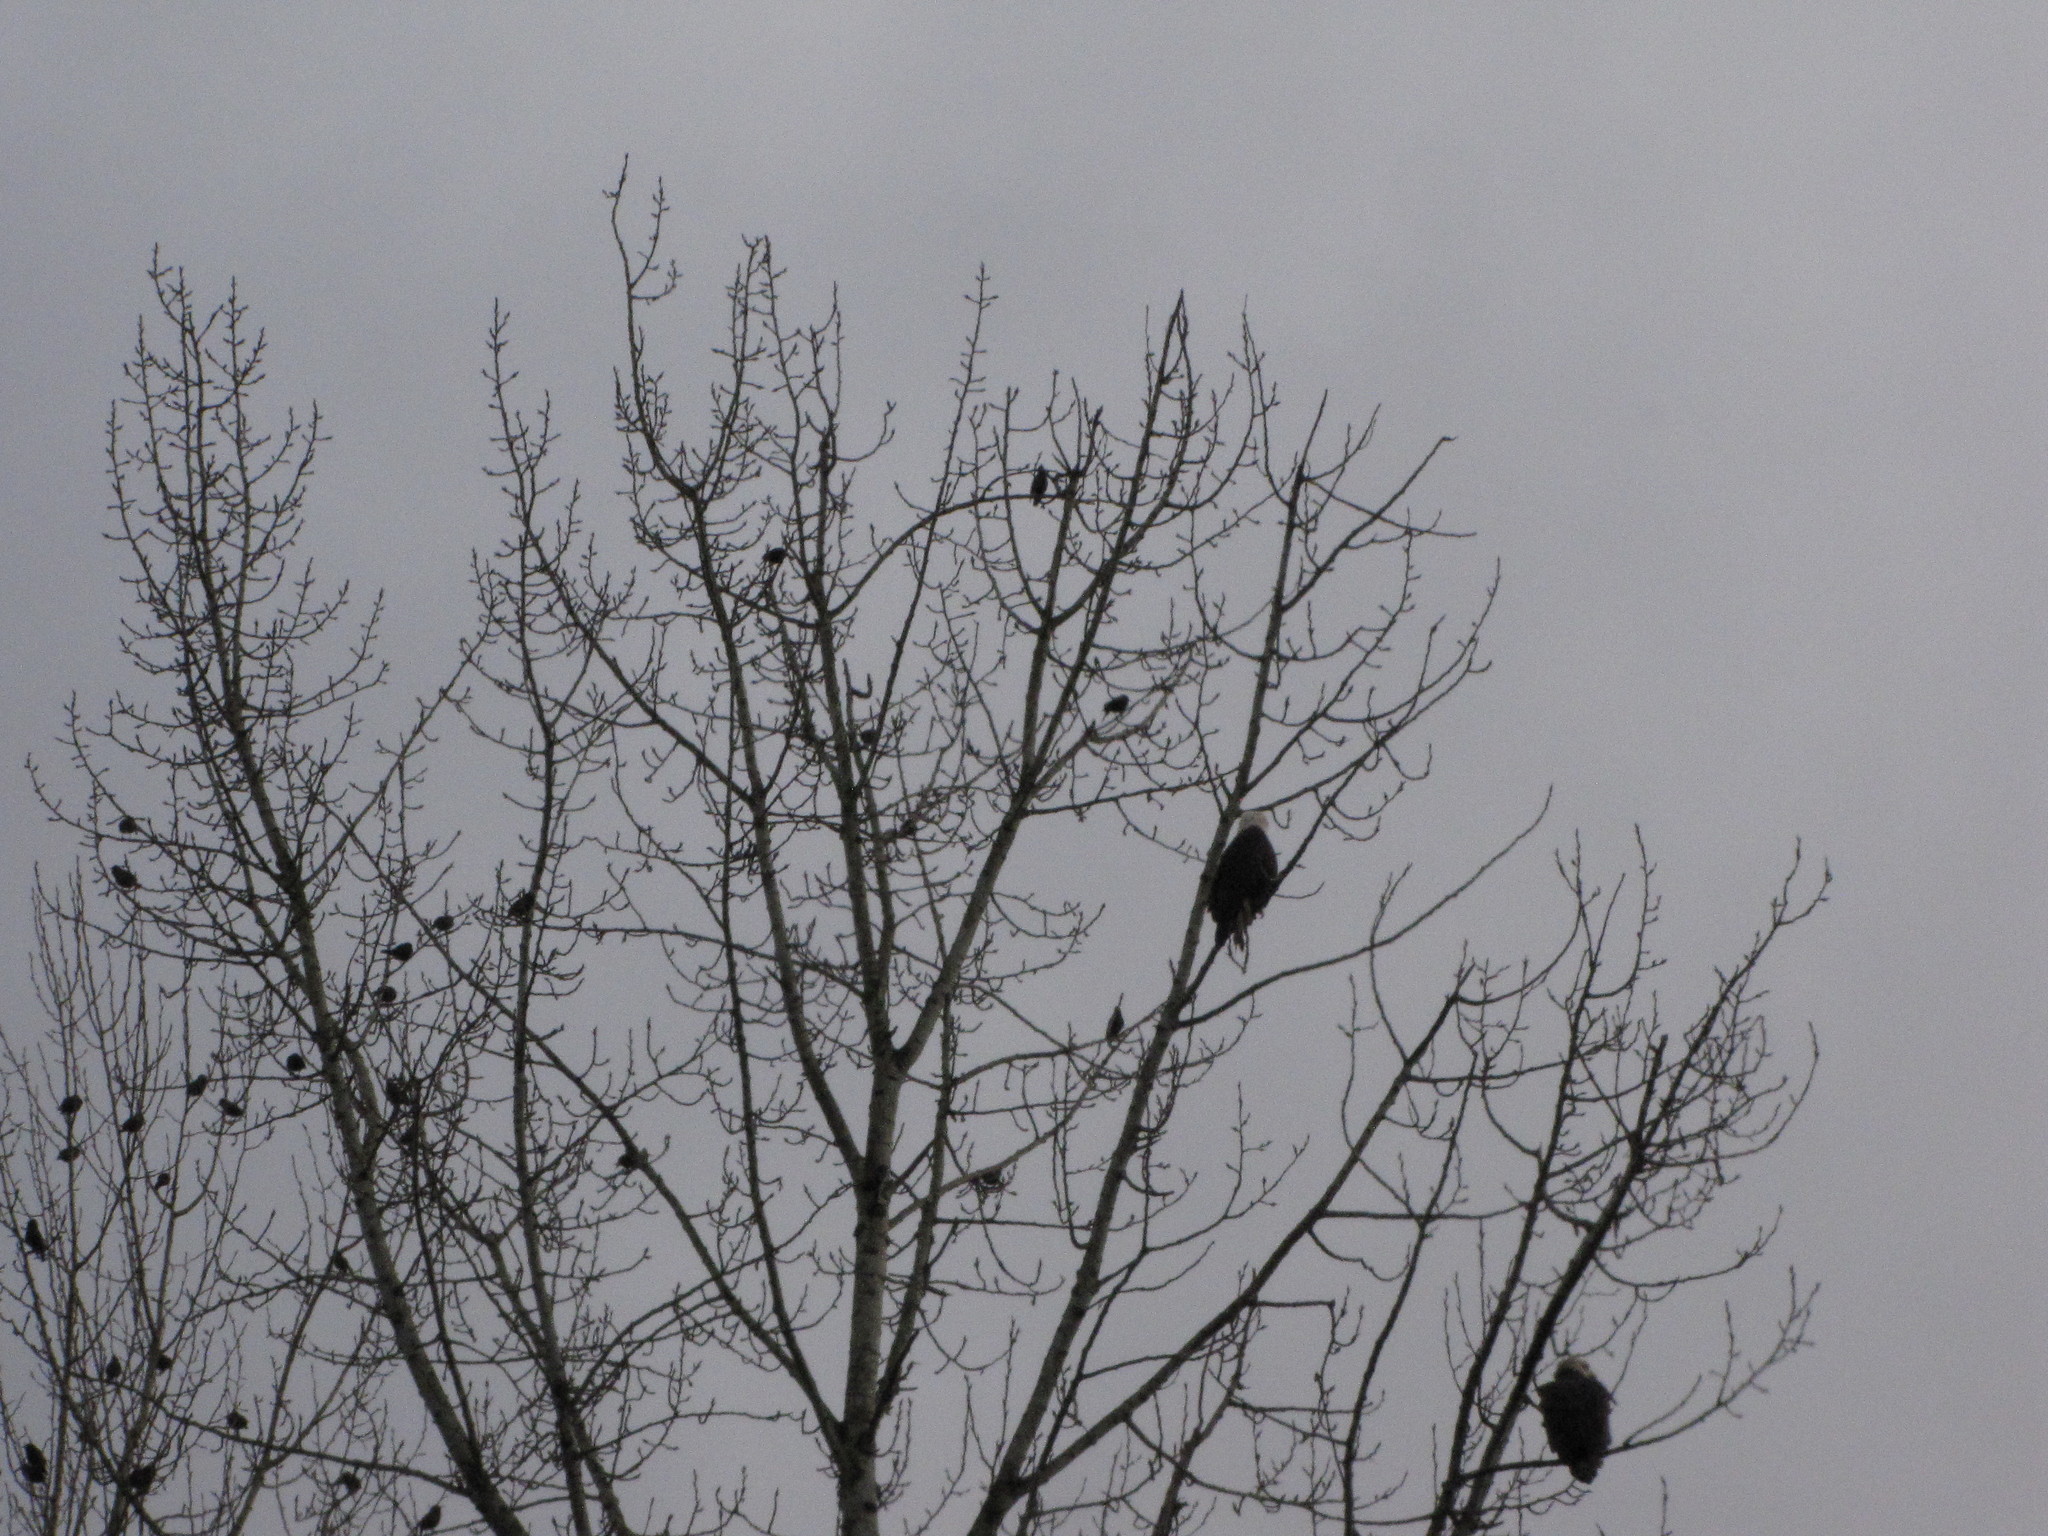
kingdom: Animalia
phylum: Chordata
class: Aves
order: Accipitriformes
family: Accipitridae
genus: Haliaeetus
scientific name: Haliaeetus leucocephalus
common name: Bald eagle
